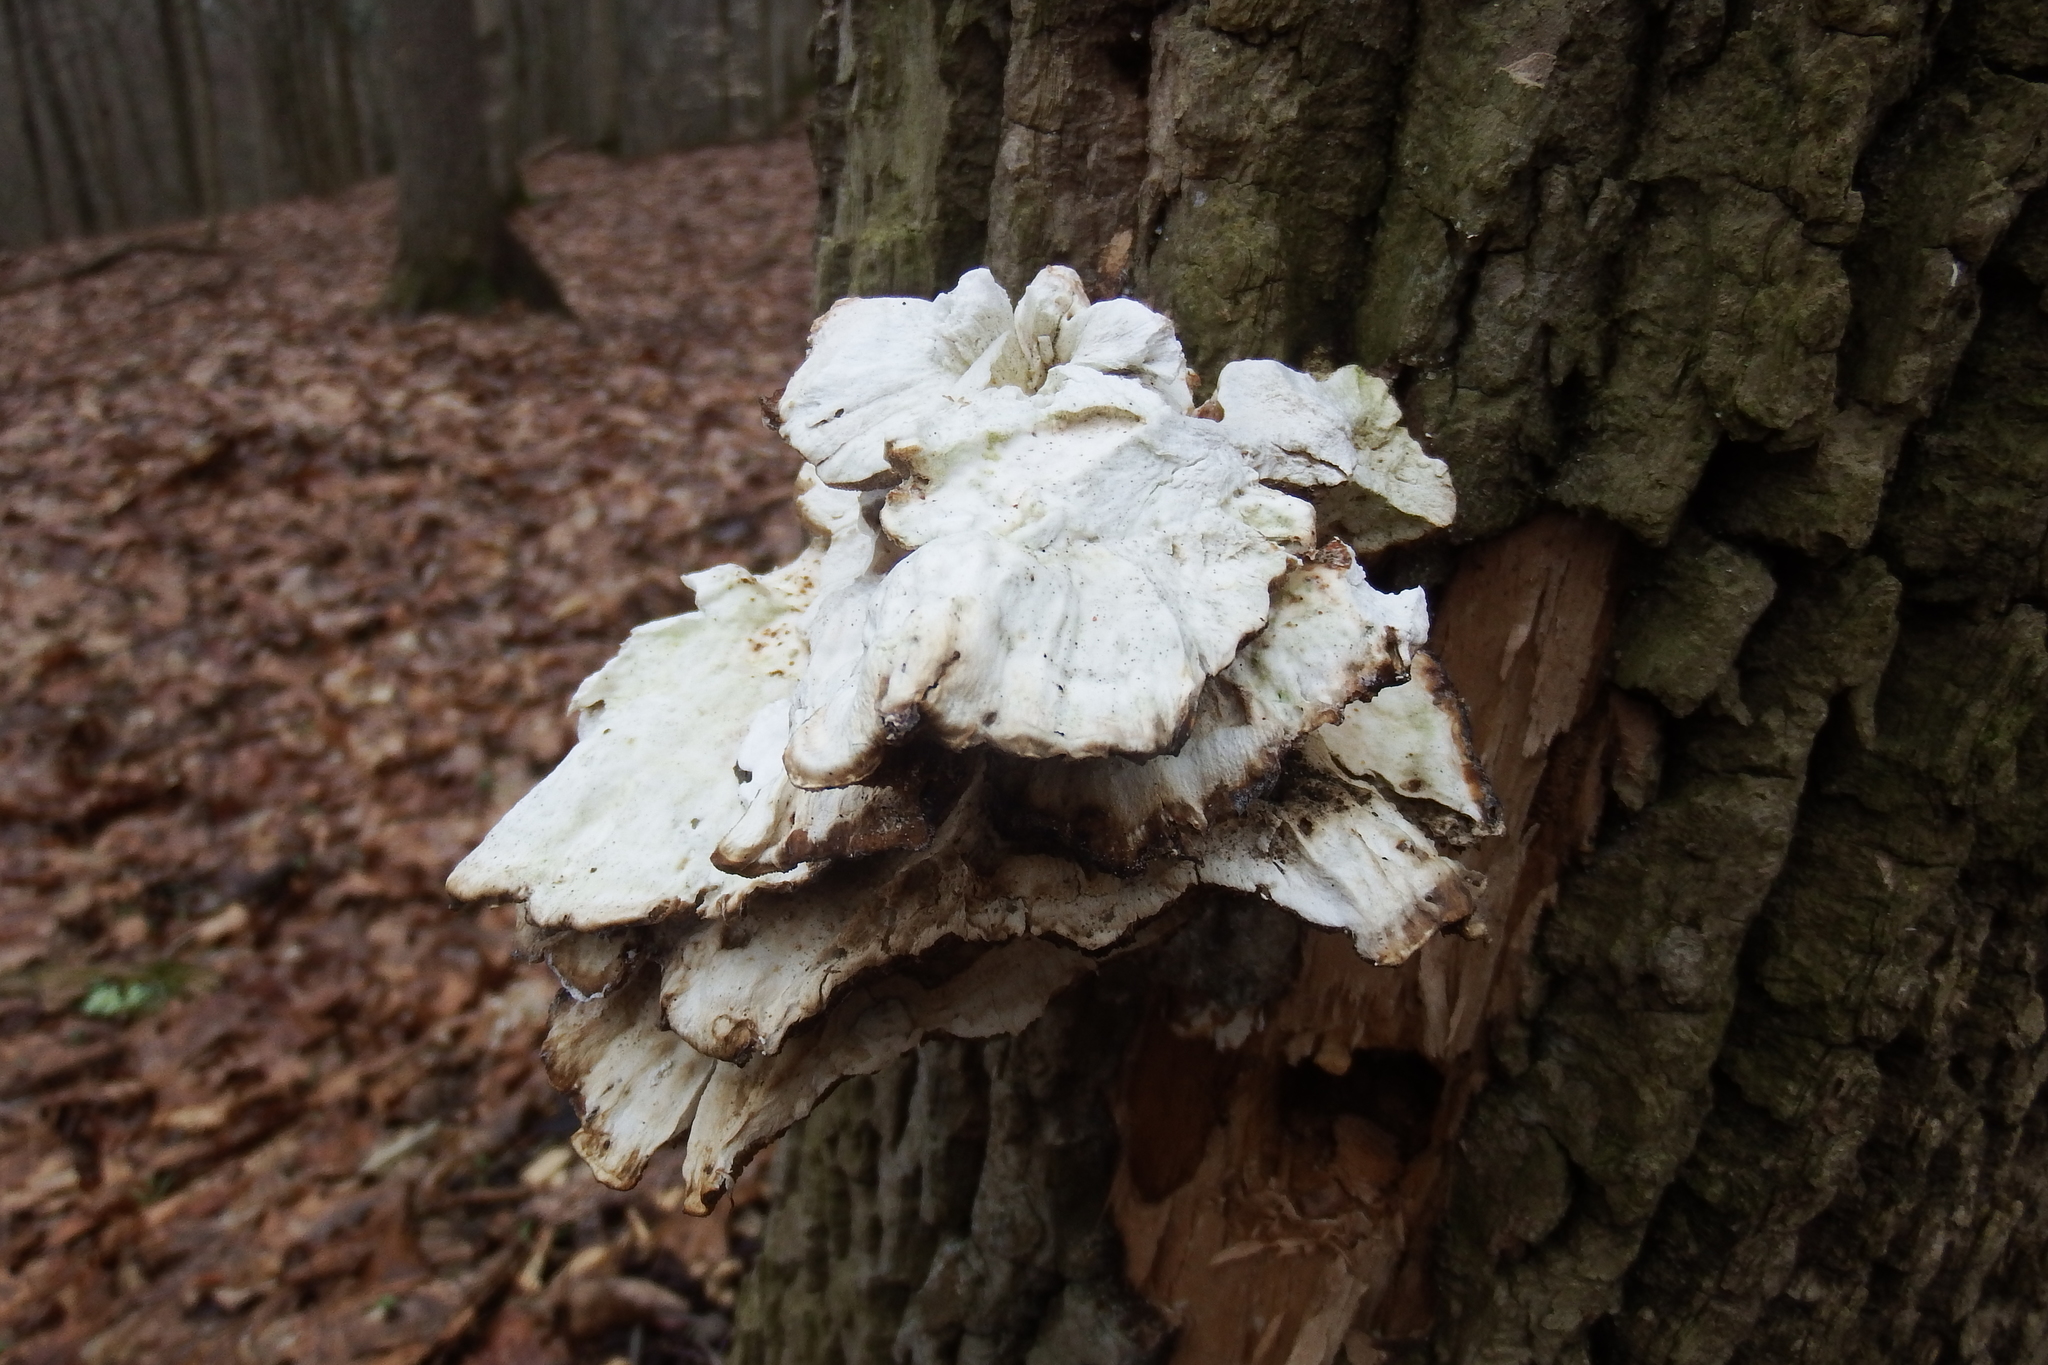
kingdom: Fungi
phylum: Basidiomycota
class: Agaricomycetes
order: Polyporales
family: Laetiporaceae
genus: Laetiporus
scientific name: Laetiporus sulphureus
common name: Chicken of the woods
